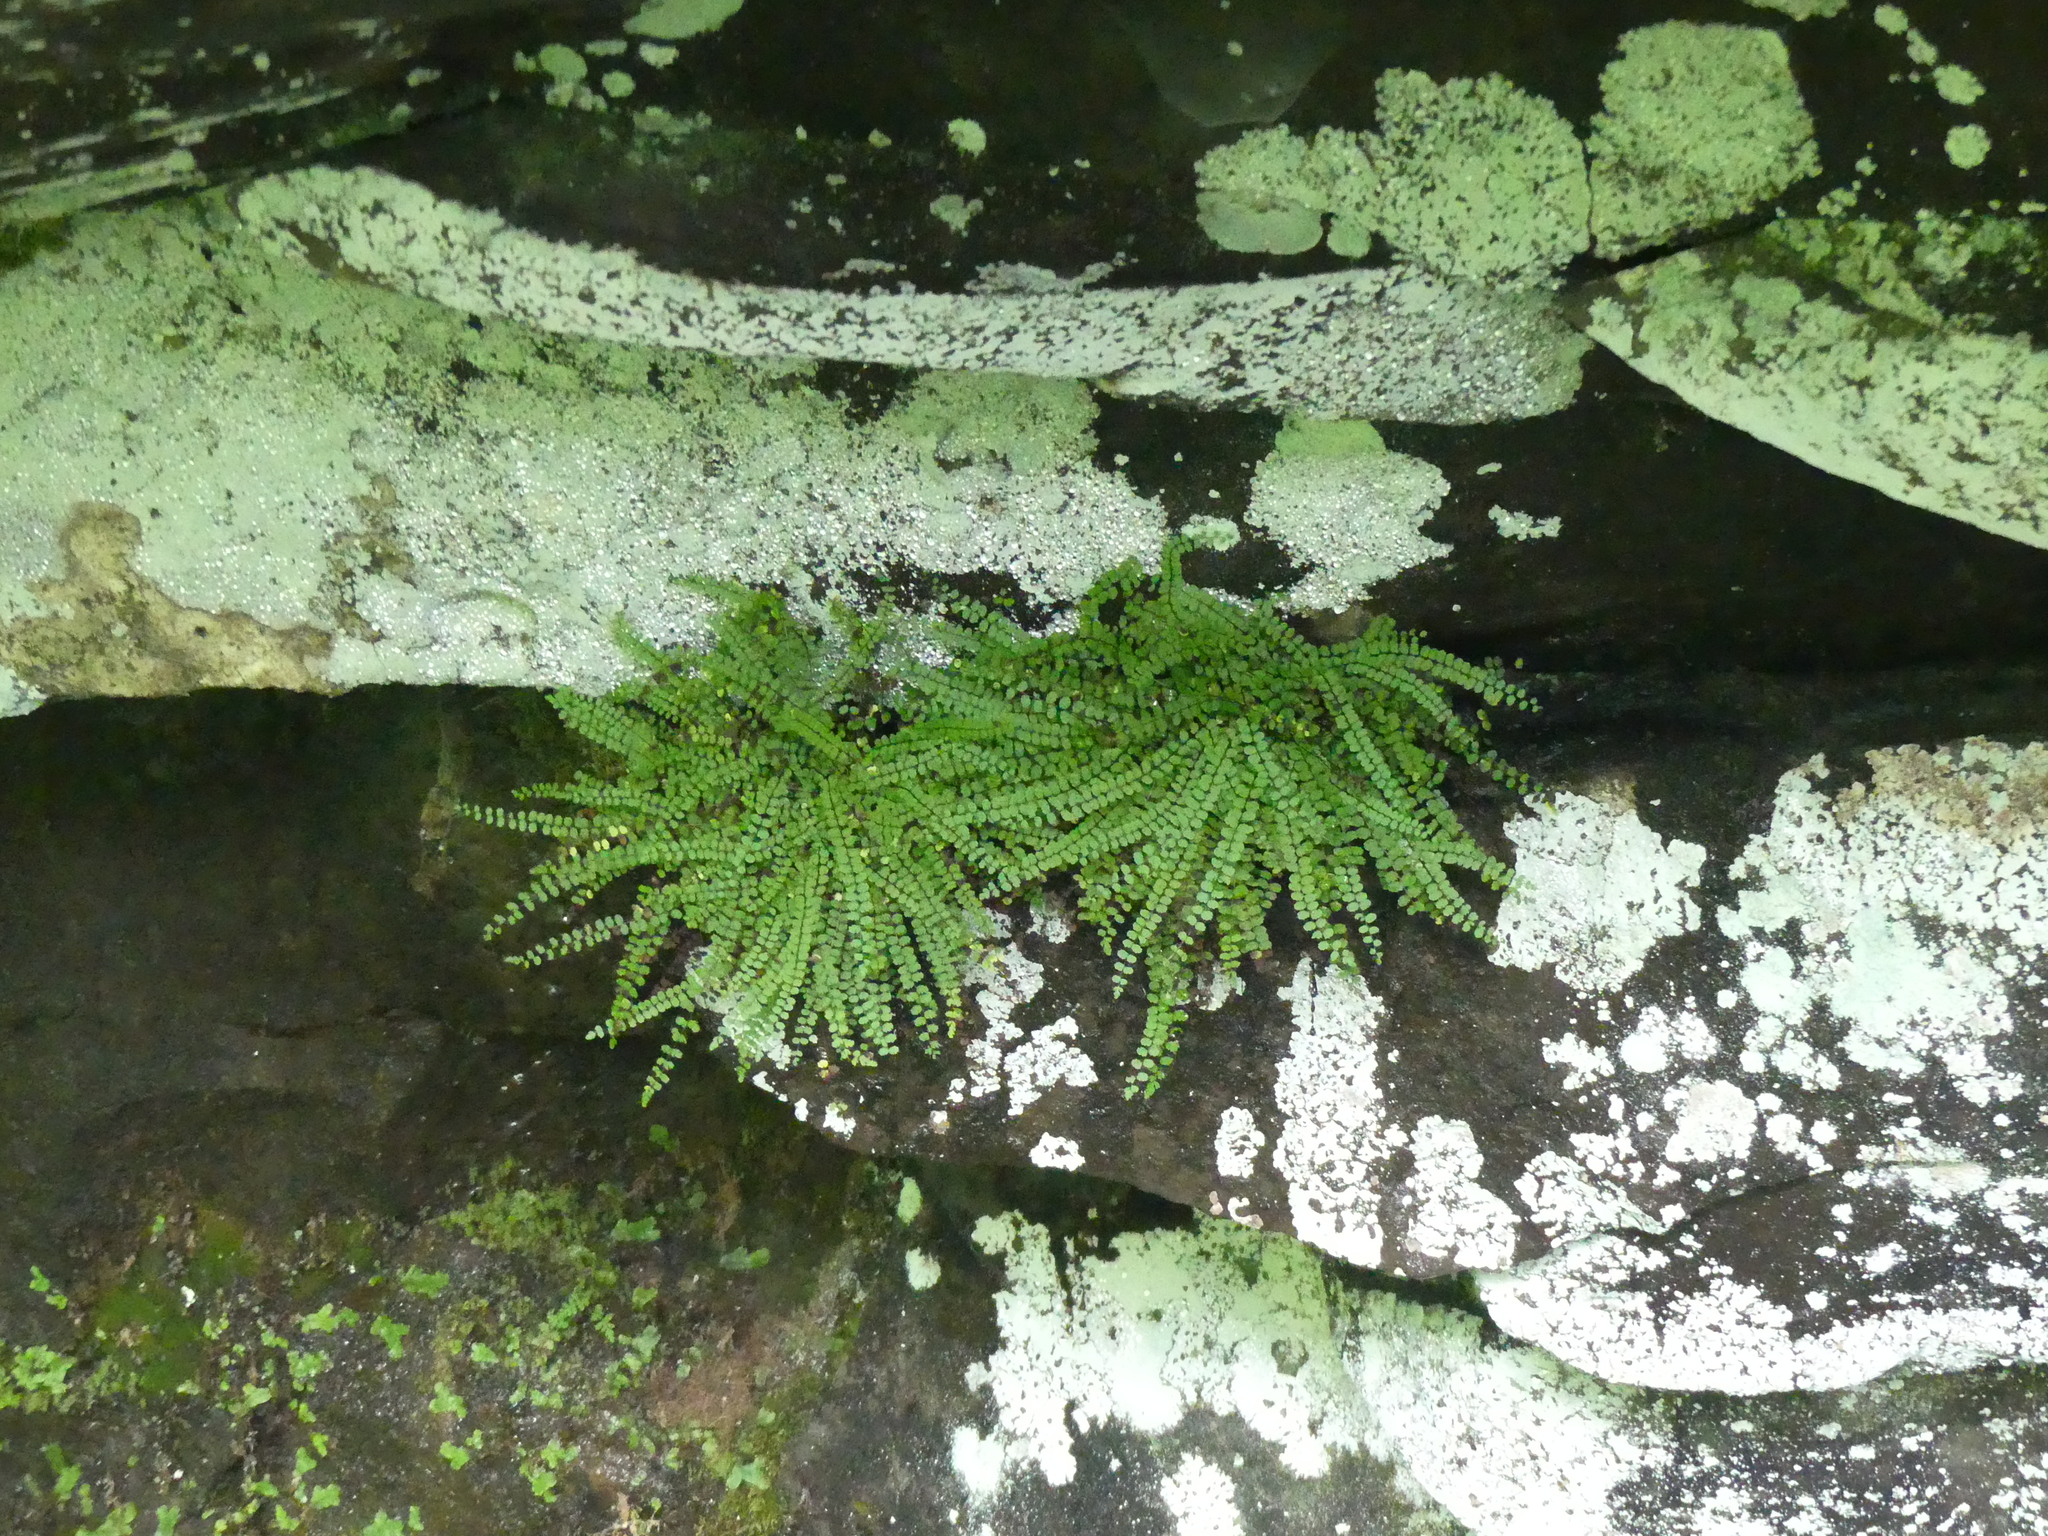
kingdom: Plantae
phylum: Tracheophyta
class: Polypodiopsida
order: Polypodiales
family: Aspleniaceae
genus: Asplenium
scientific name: Asplenium trichomanes
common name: Maidenhair spleenwort
